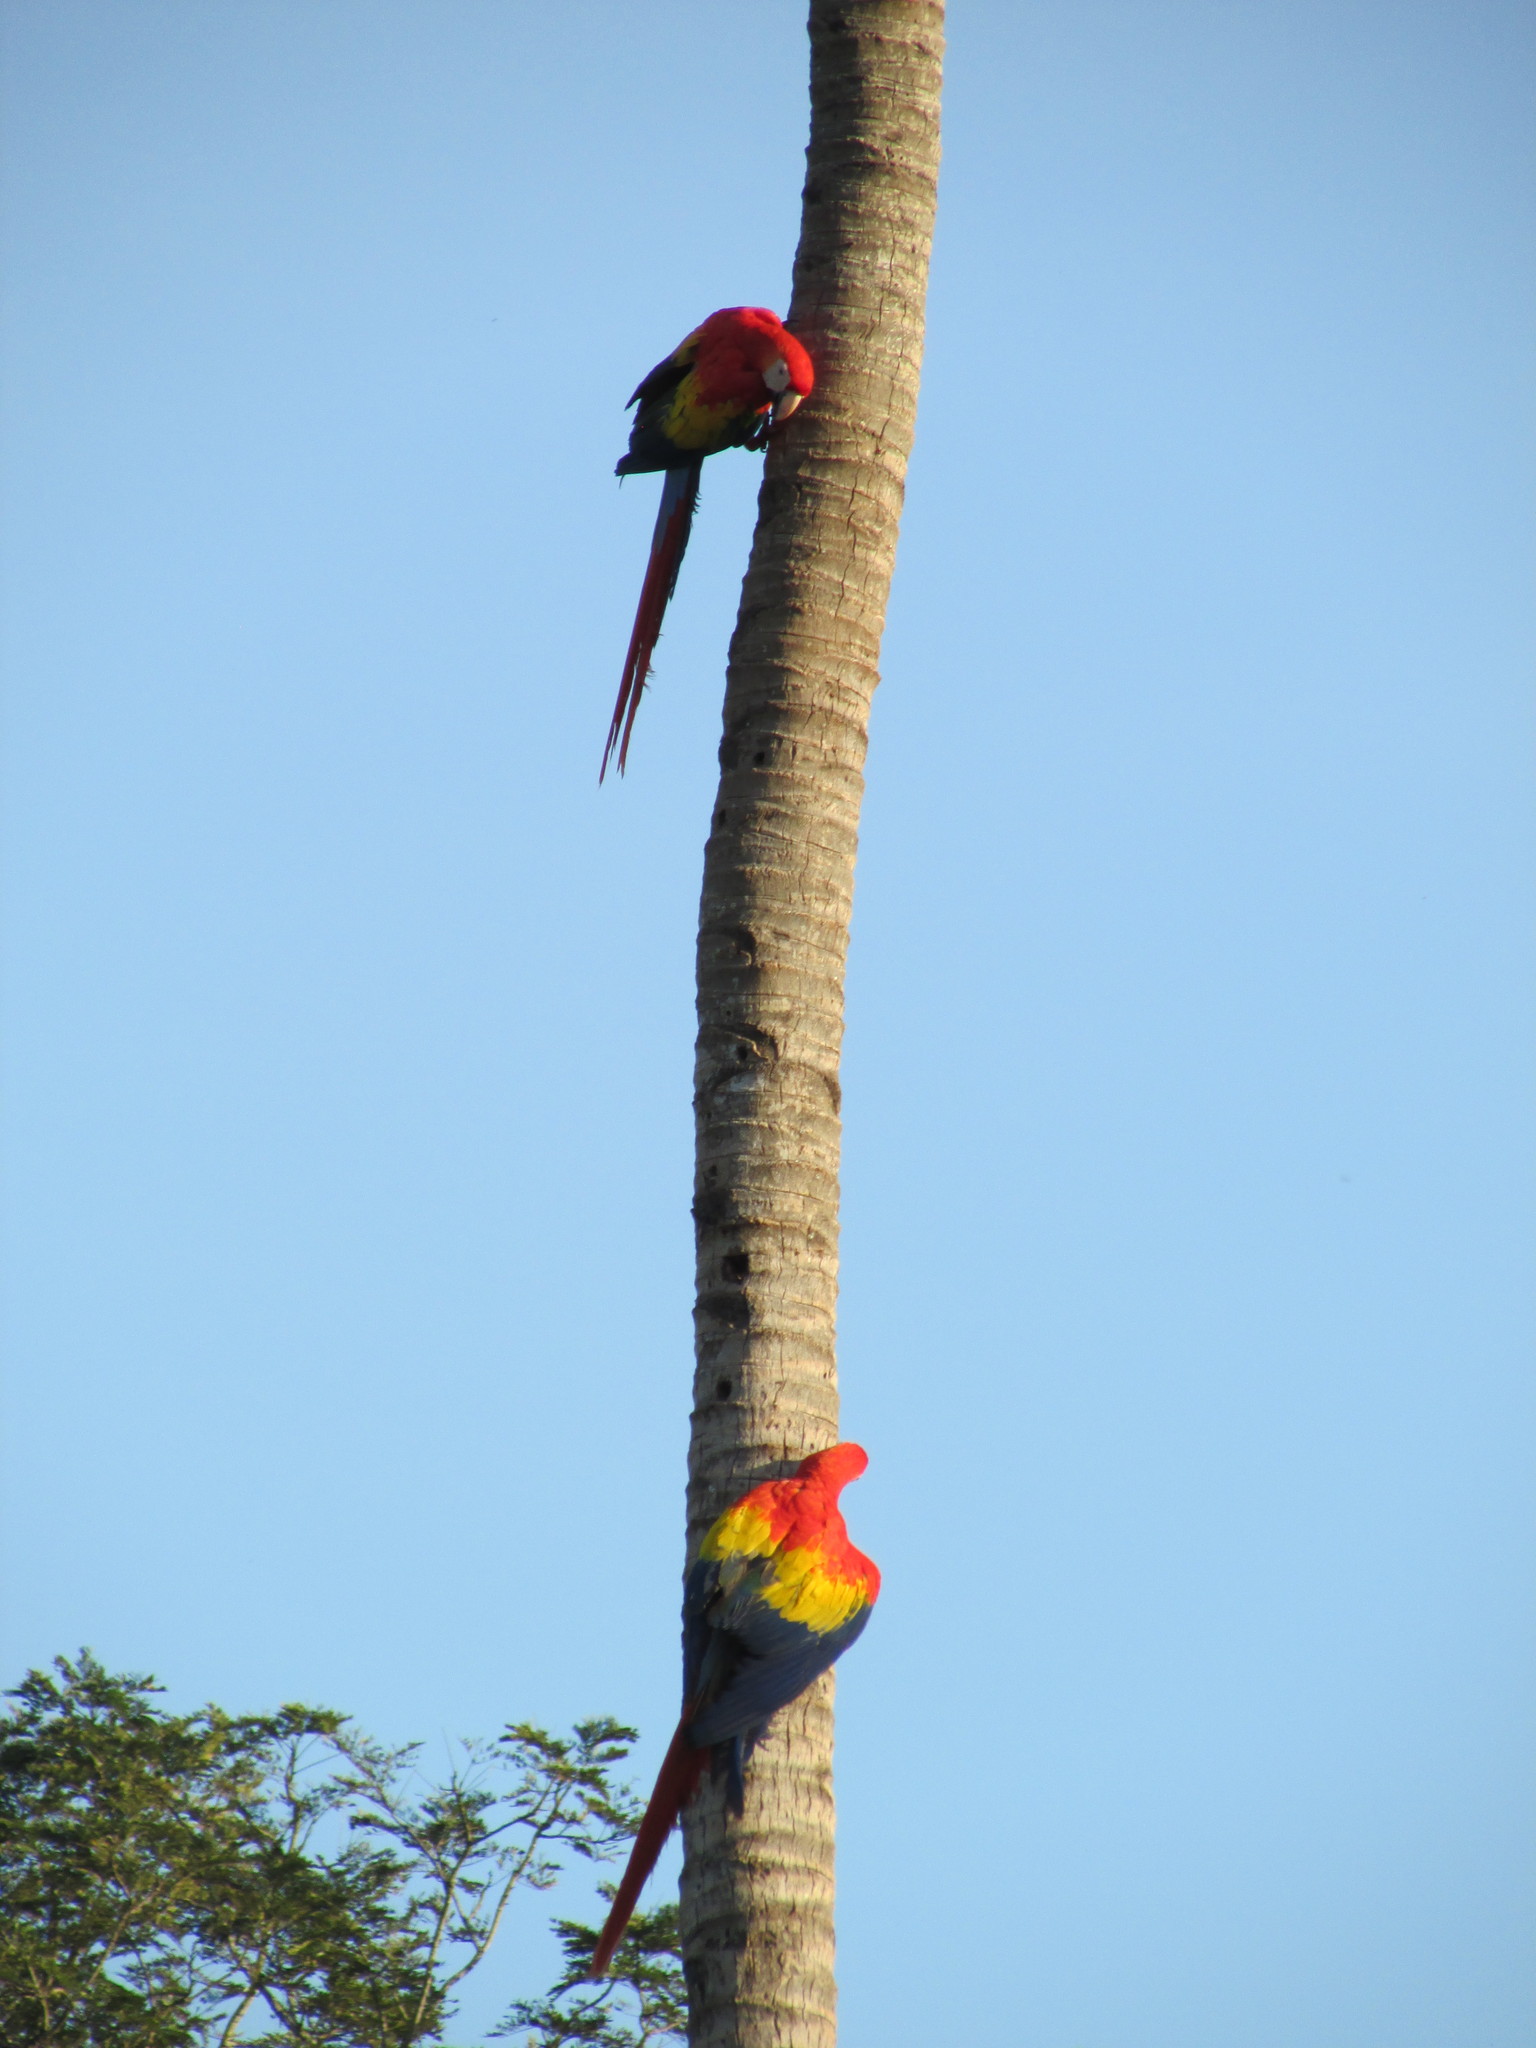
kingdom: Animalia
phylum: Chordata
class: Aves
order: Psittaciformes
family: Psittacidae
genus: Ara
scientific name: Ara macao
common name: Scarlet macaw
